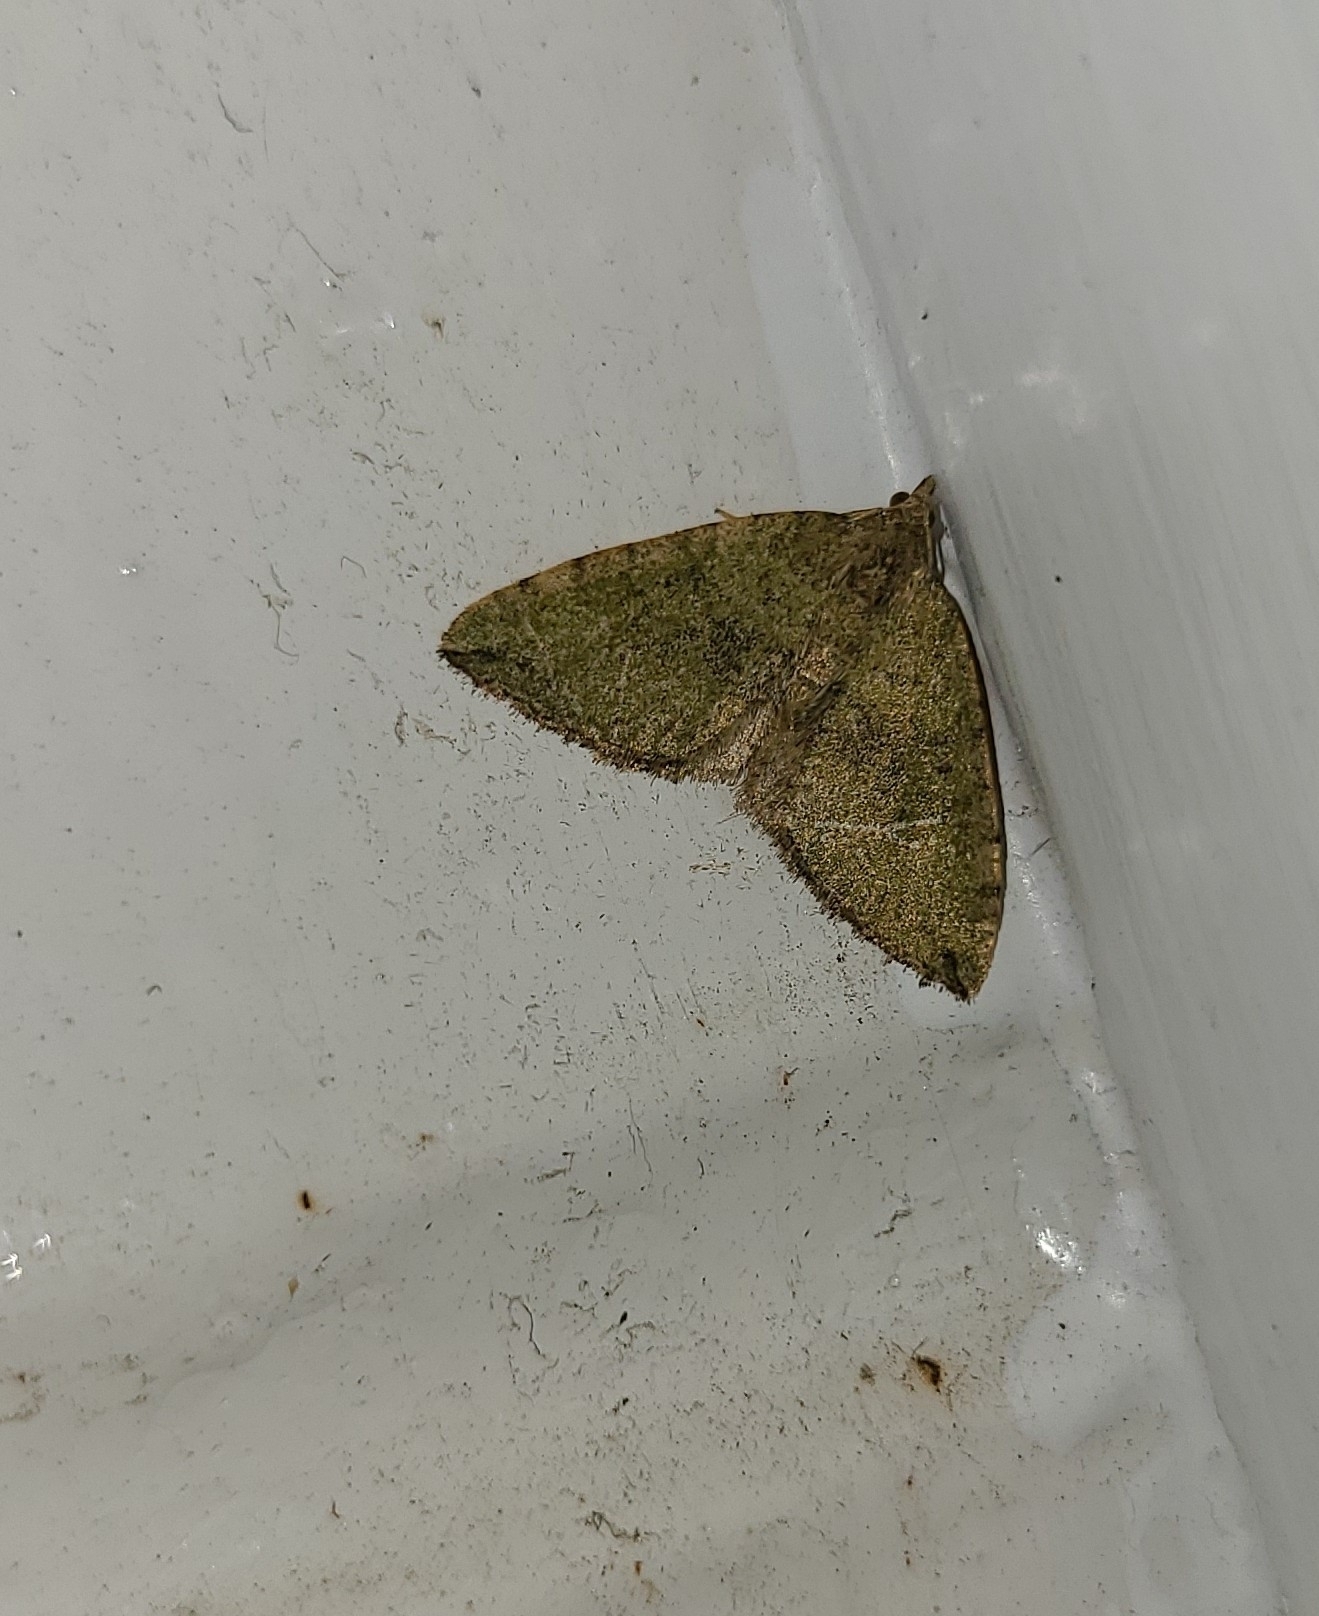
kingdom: Animalia
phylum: Arthropoda
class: Insecta
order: Lepidoptera
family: Geometridae
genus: Epyaxa
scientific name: Epyaxa rosearia
